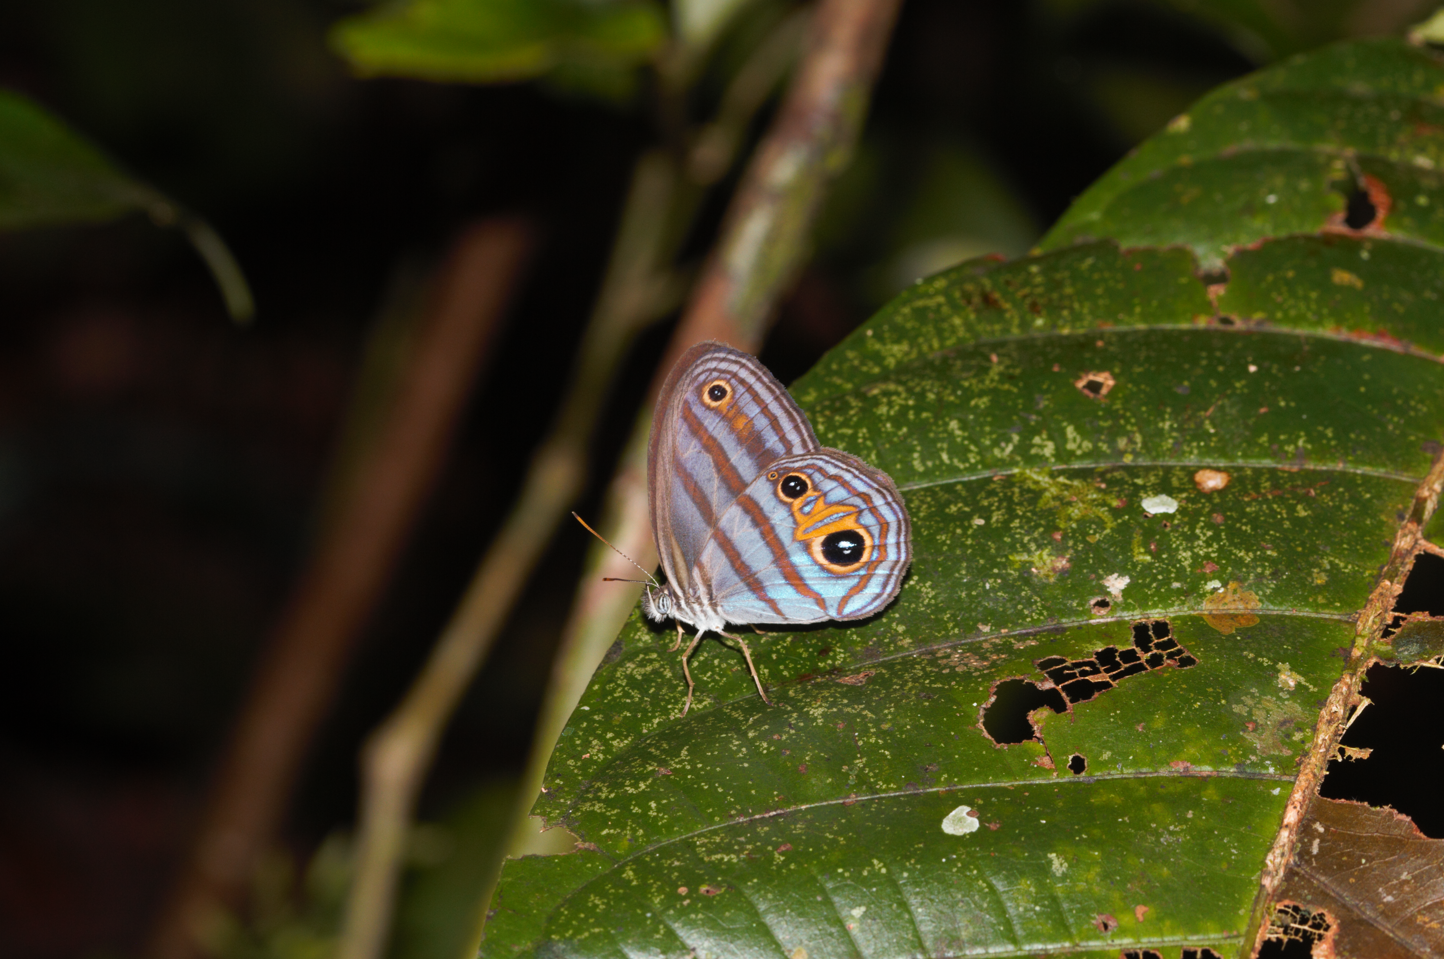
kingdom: Animalia
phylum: Arthropoda
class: Insecta
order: Lepidoptera
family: Nymphalidae
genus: Chloreuptychia
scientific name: Chloreuptychia chloris
